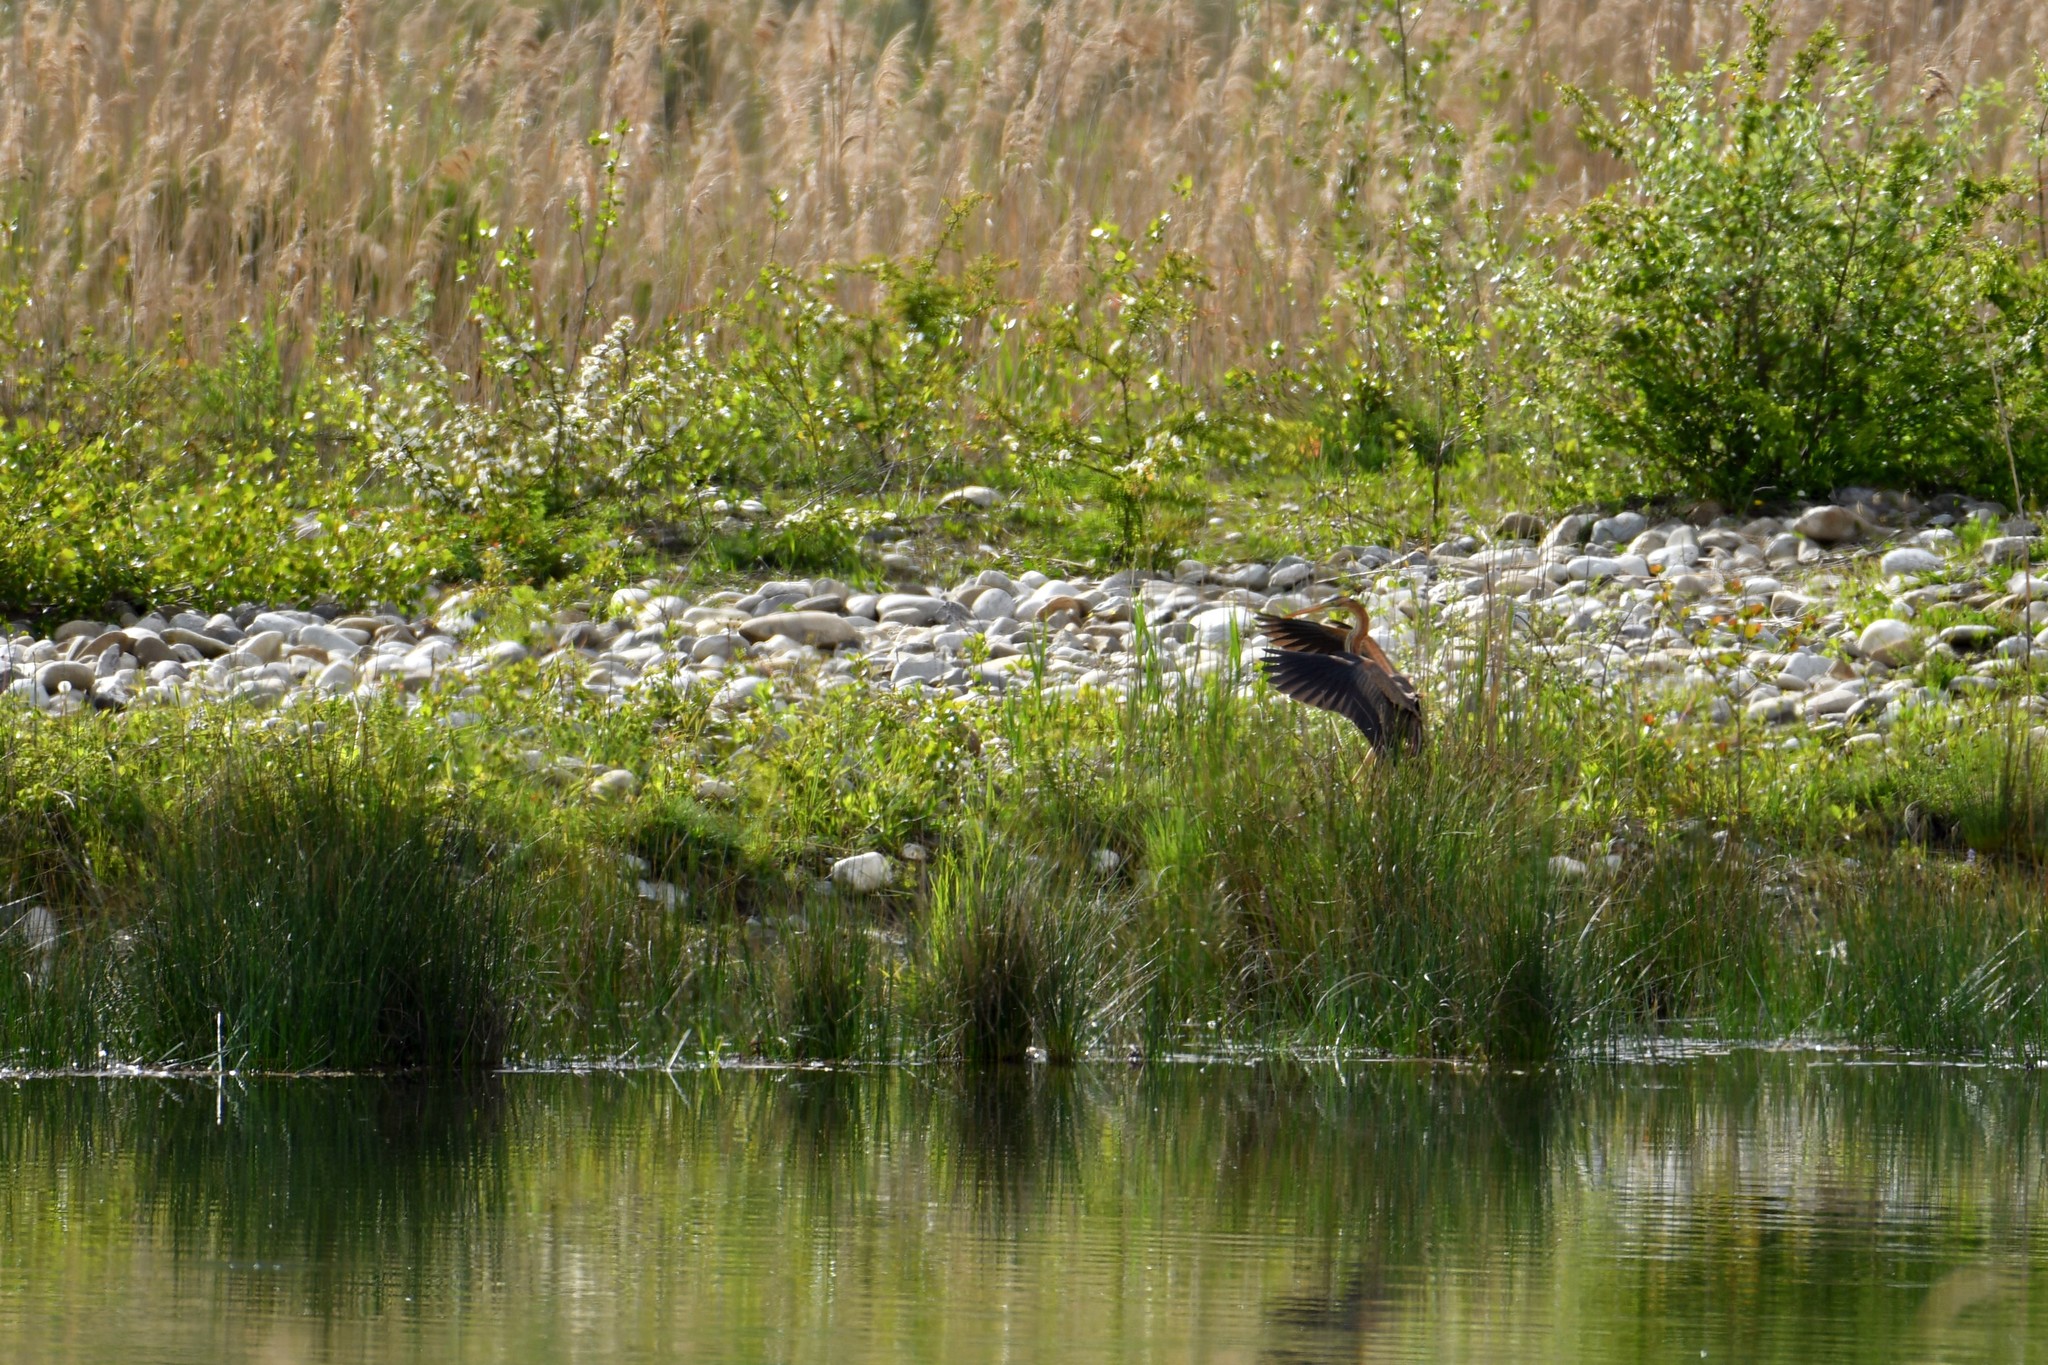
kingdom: Animalia
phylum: Chordata
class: Aves
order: Pelecaniformes
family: Ardeidae
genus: Ardea
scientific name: Ardea purpurea
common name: Purple heron
